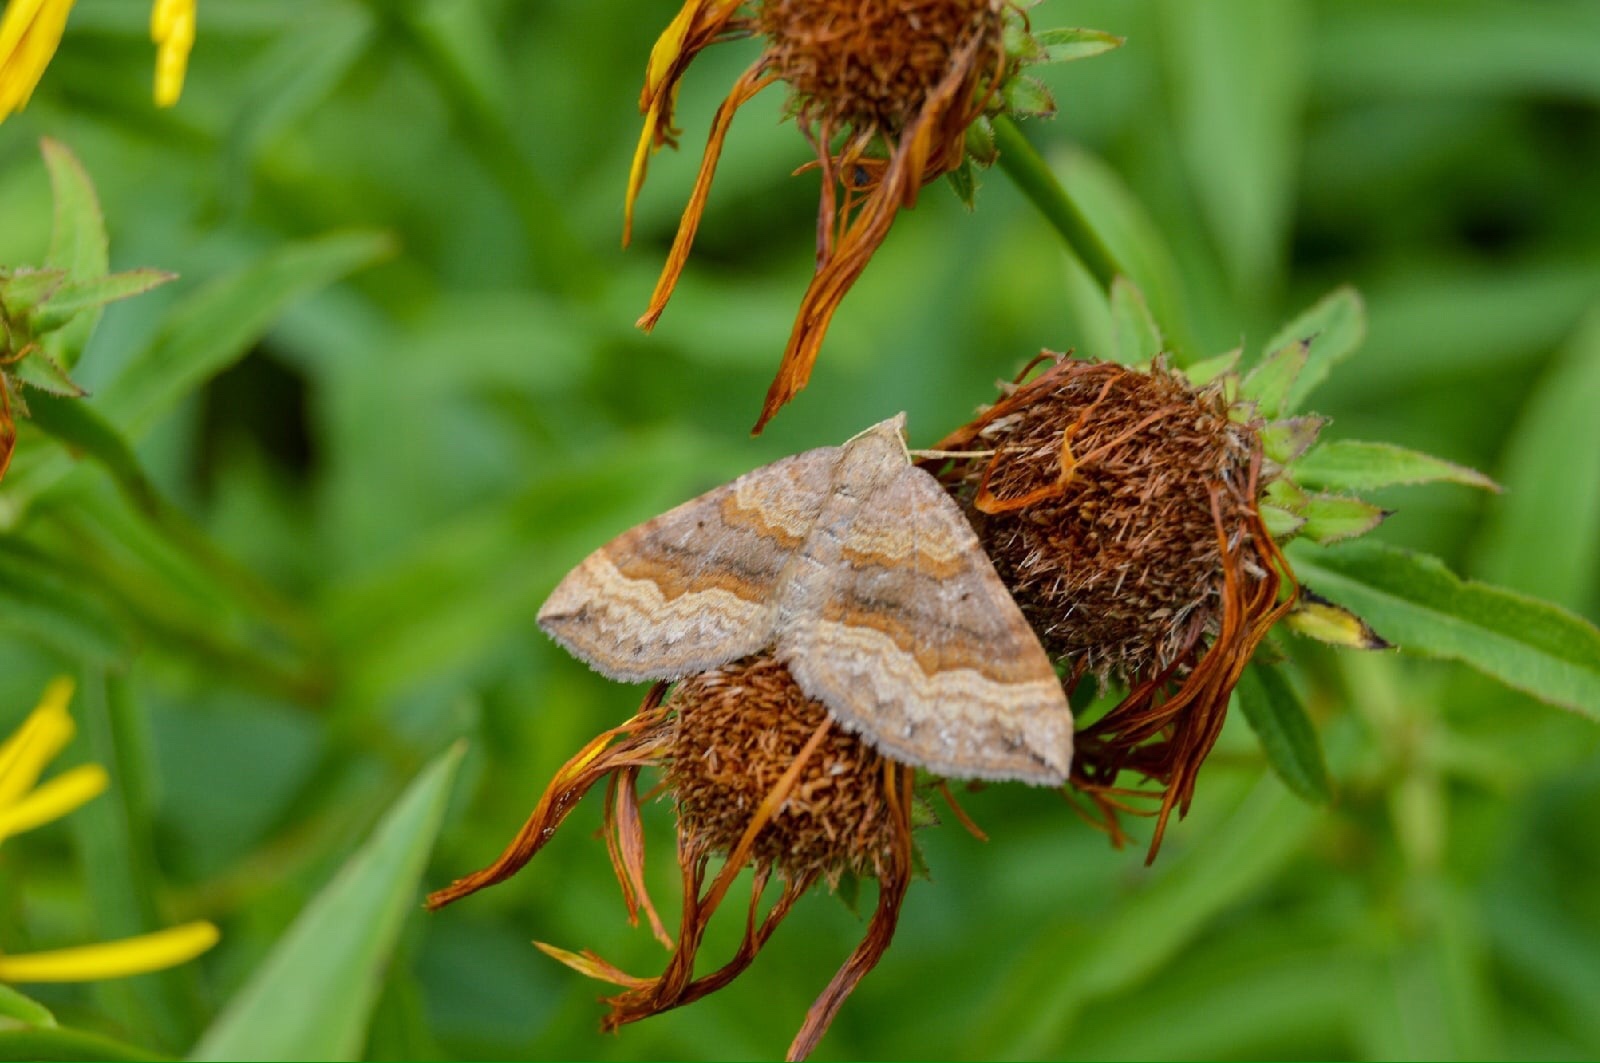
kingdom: Animalia
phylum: Arthropoda
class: Insecta
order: Lepidoptera
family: Geometridae
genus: Scotopteryx
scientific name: Scotopteryx chenopodiata
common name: Shaded broad-bar
